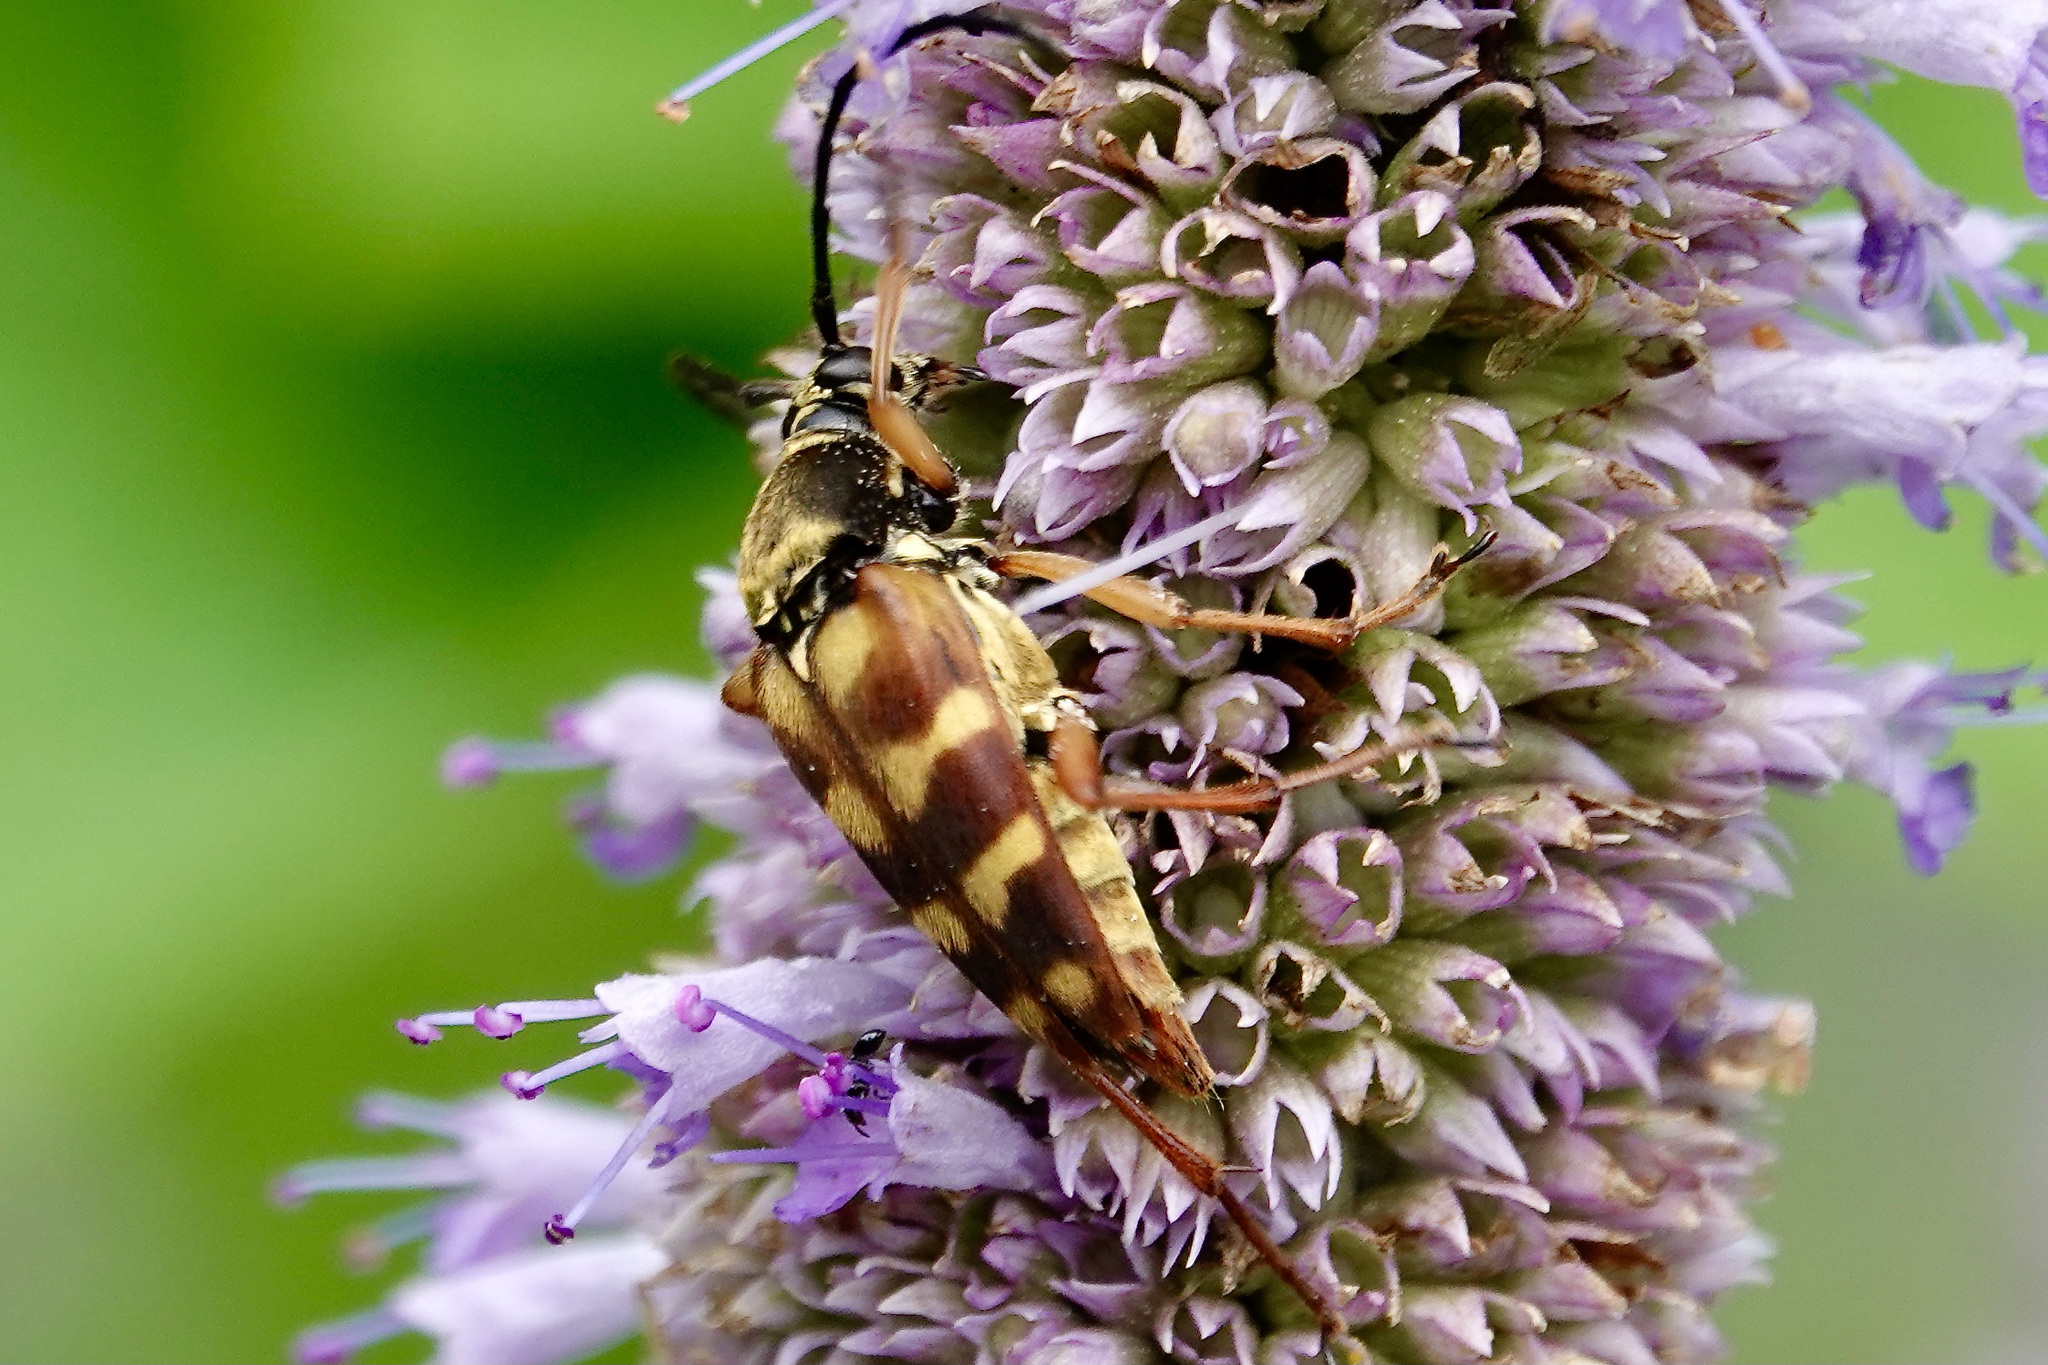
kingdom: Animalia
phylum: Arthropoda
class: Insecta
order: Coleoptera
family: Cerambycidae
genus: Typocerus
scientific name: Typocerus velutinus
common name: Banded longhorn beetle
